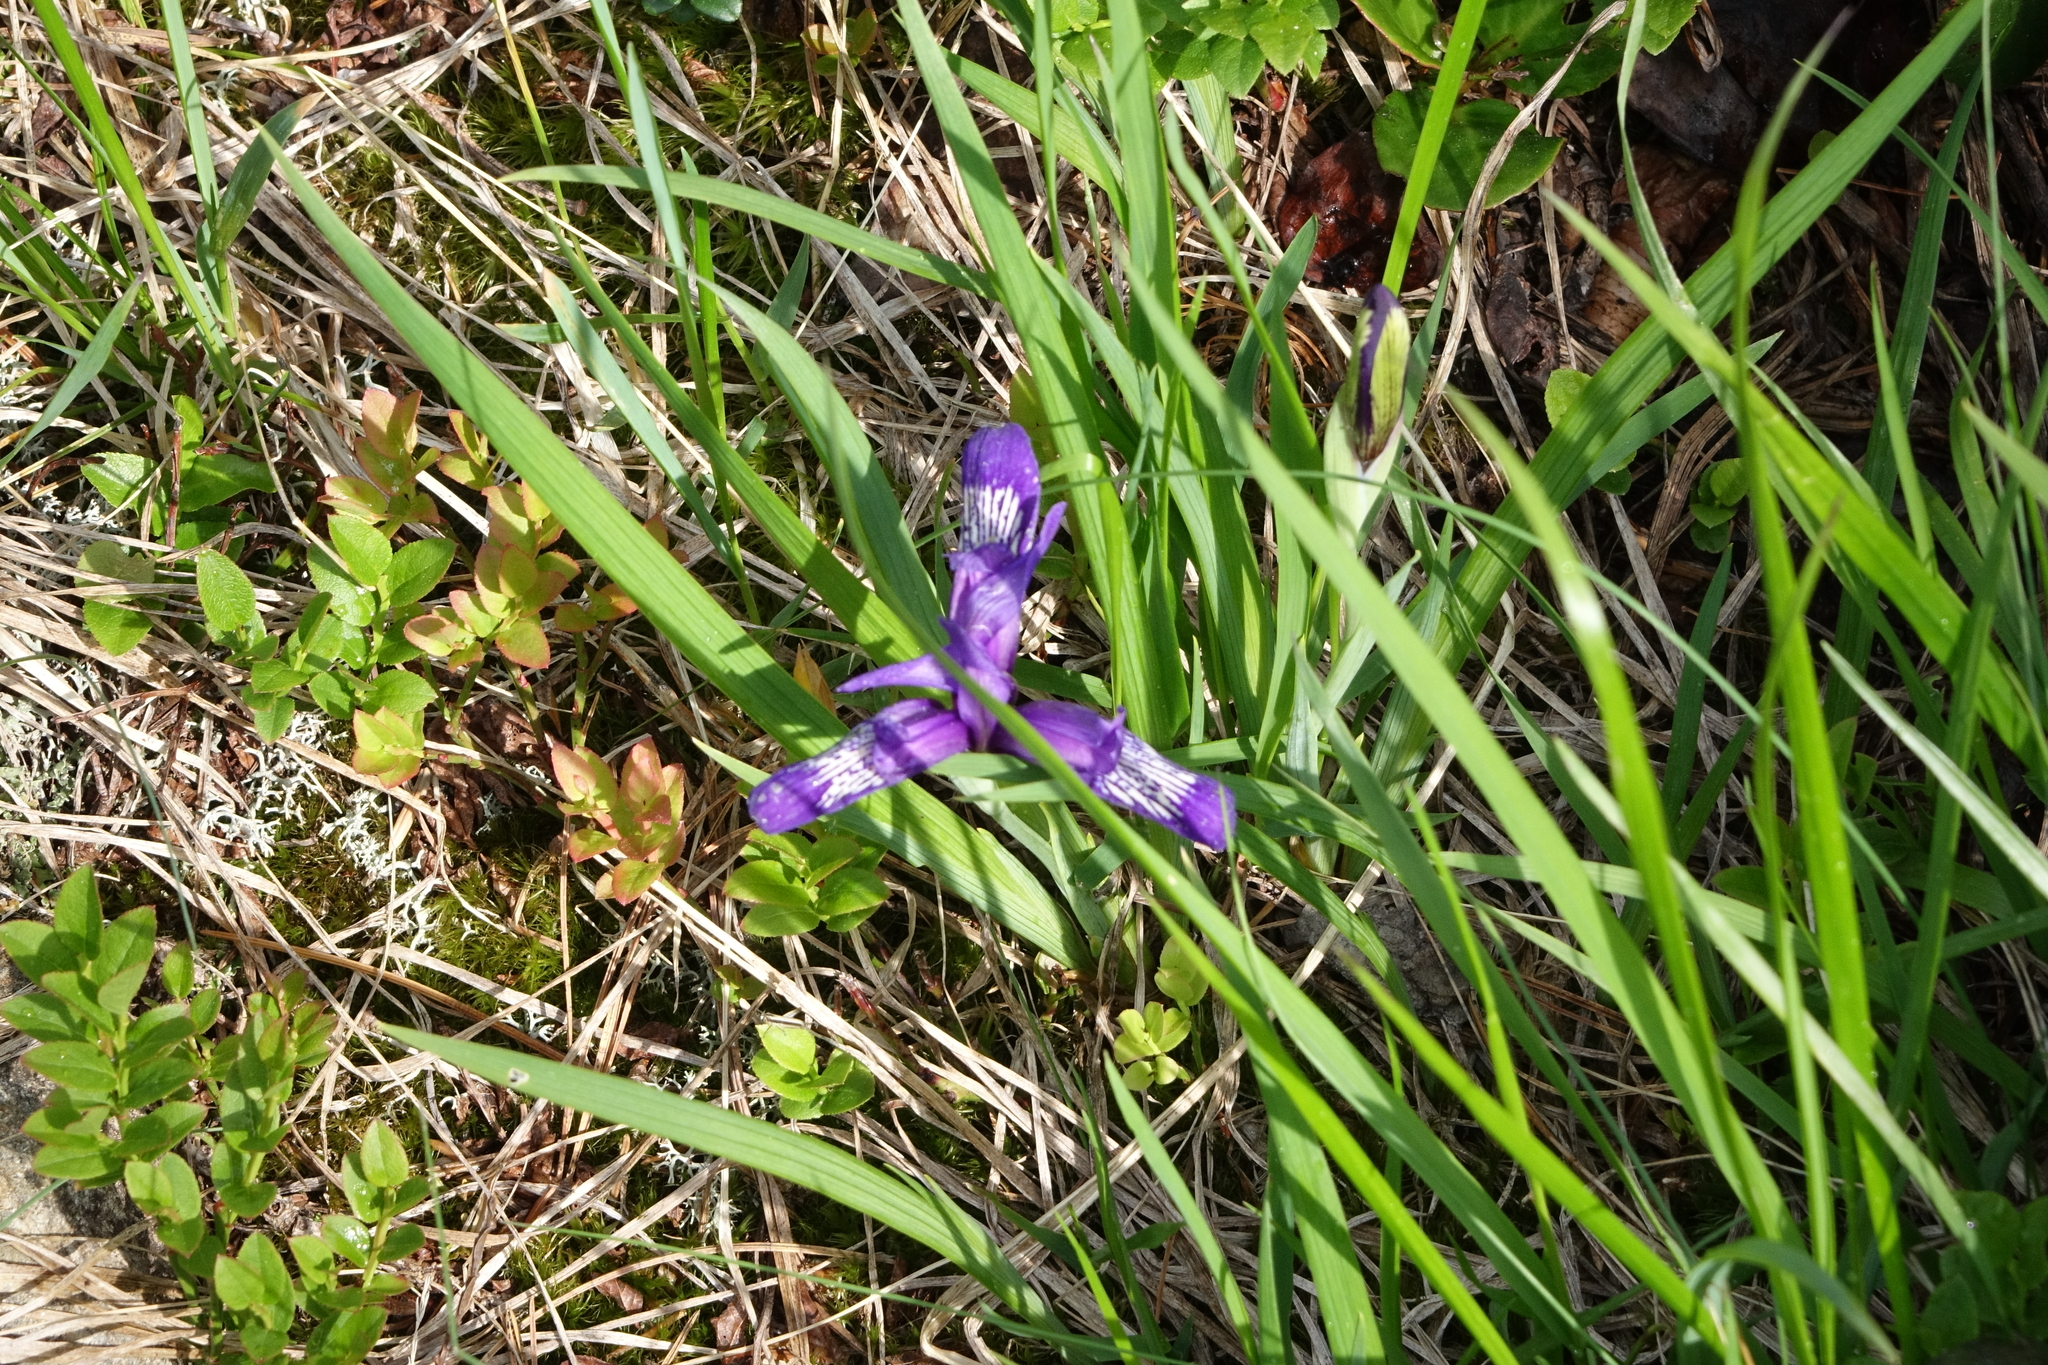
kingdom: Plantae
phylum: Tracheophyta
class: Liliopsida
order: Asparagales
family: Iridaceae
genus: Iris
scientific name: Iris ruthenica
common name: Purple-bract iris
